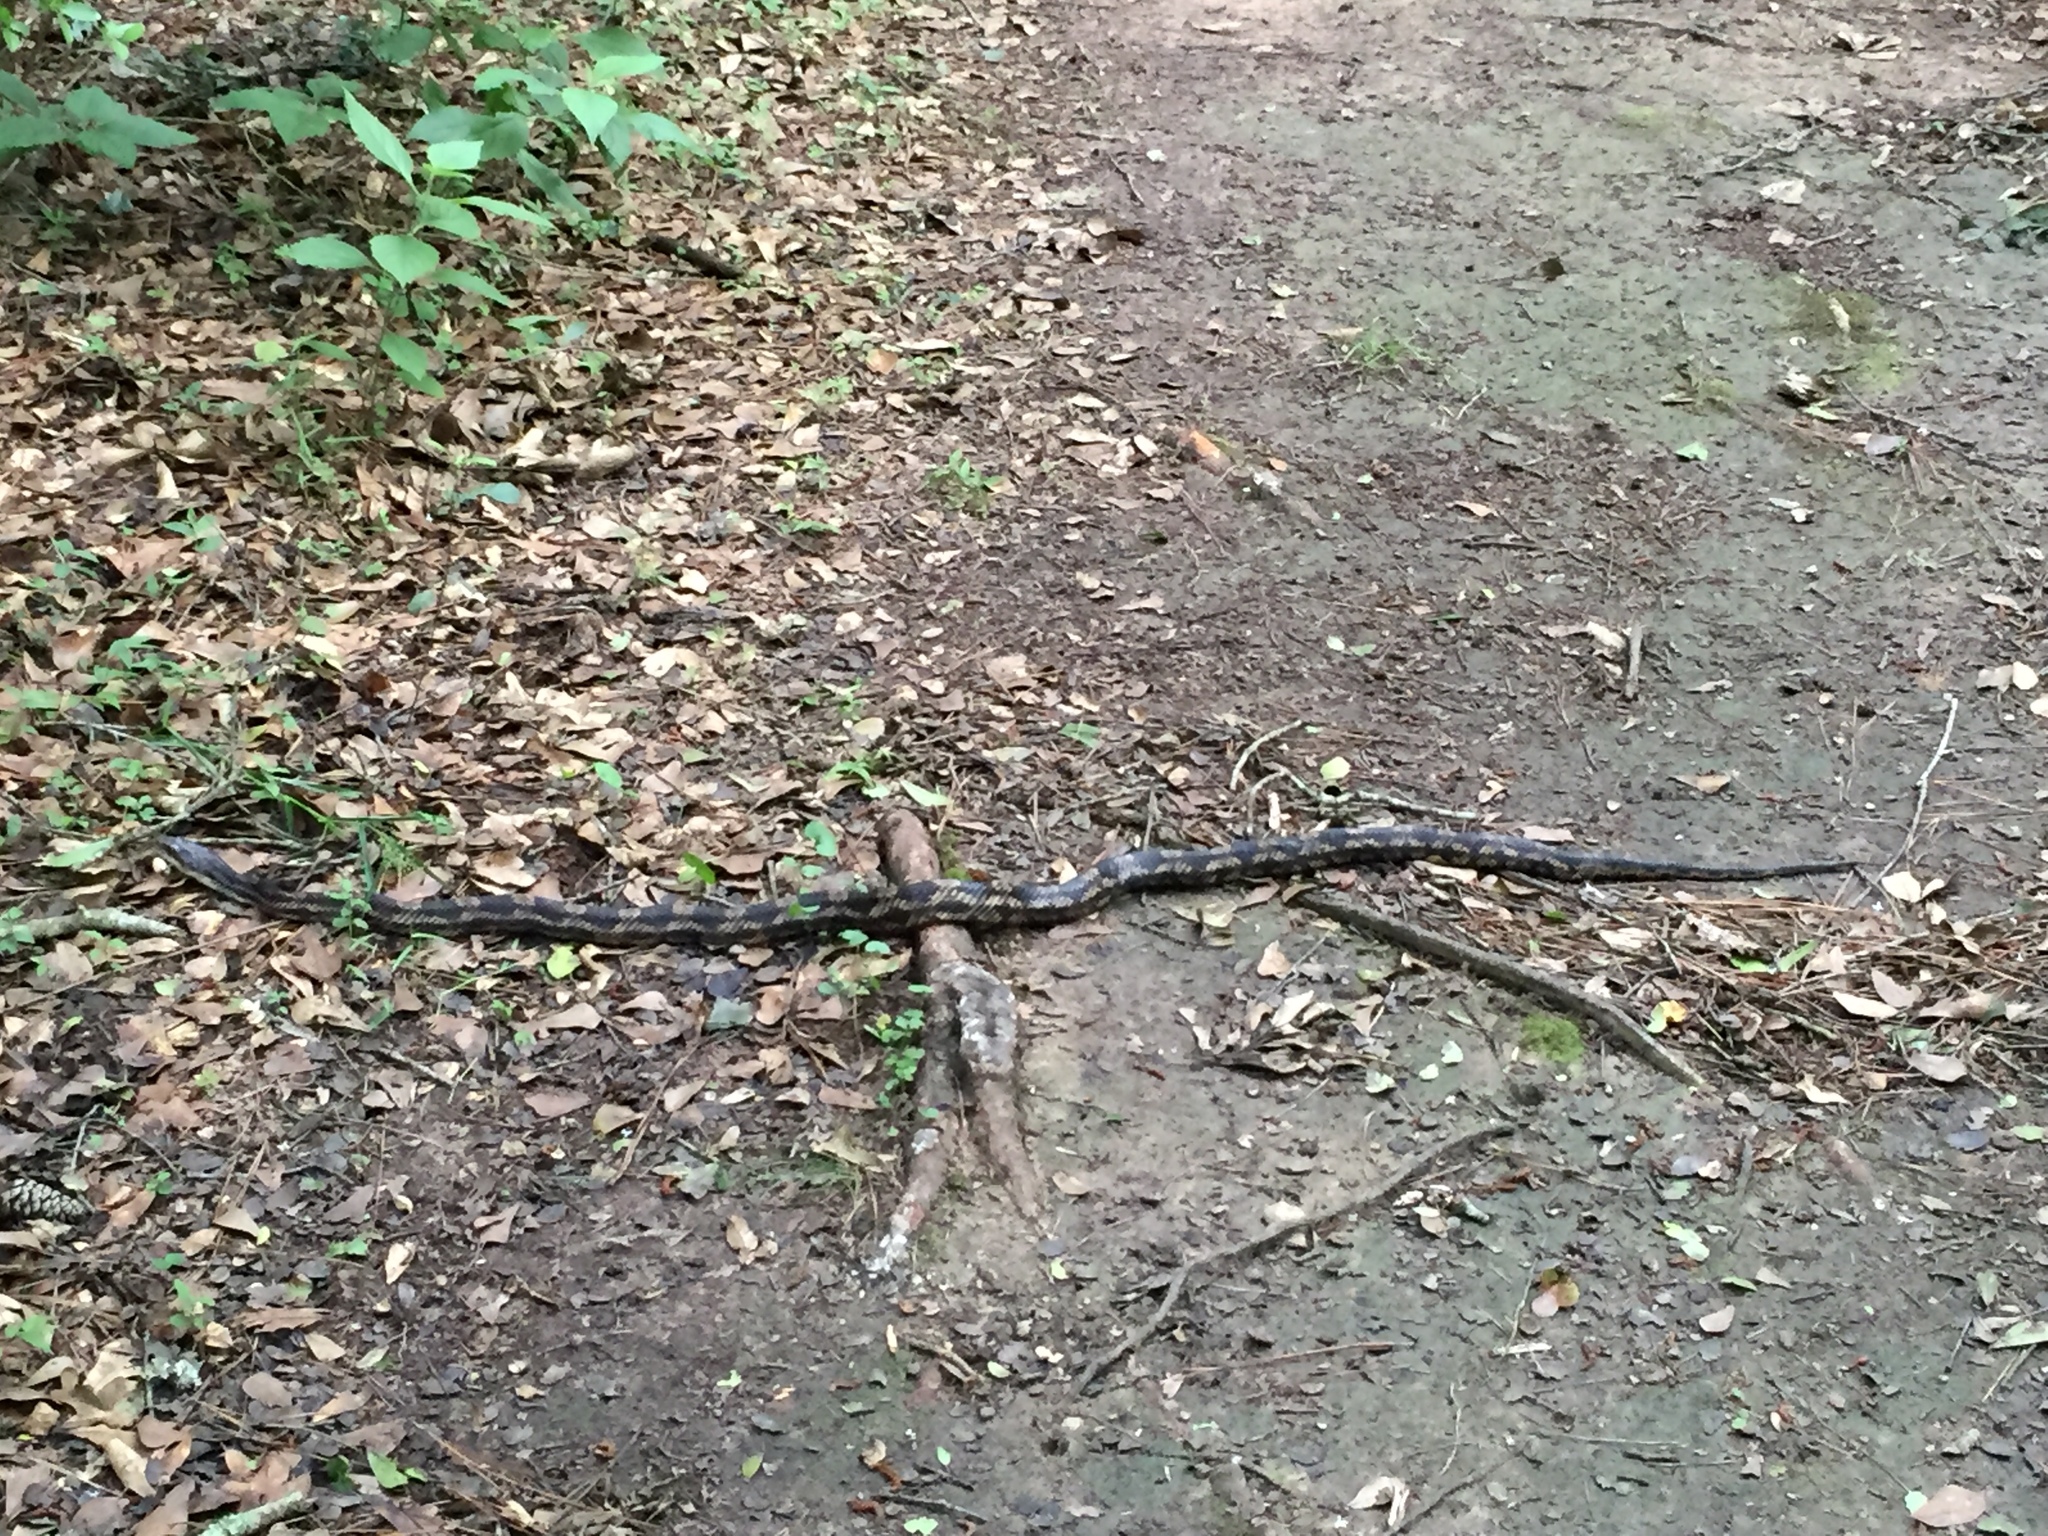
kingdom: Animalia
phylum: Chordata
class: Squamata
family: Colubridae
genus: Pantherophis
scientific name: Pantherophis obsoletus
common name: Black rat snake
